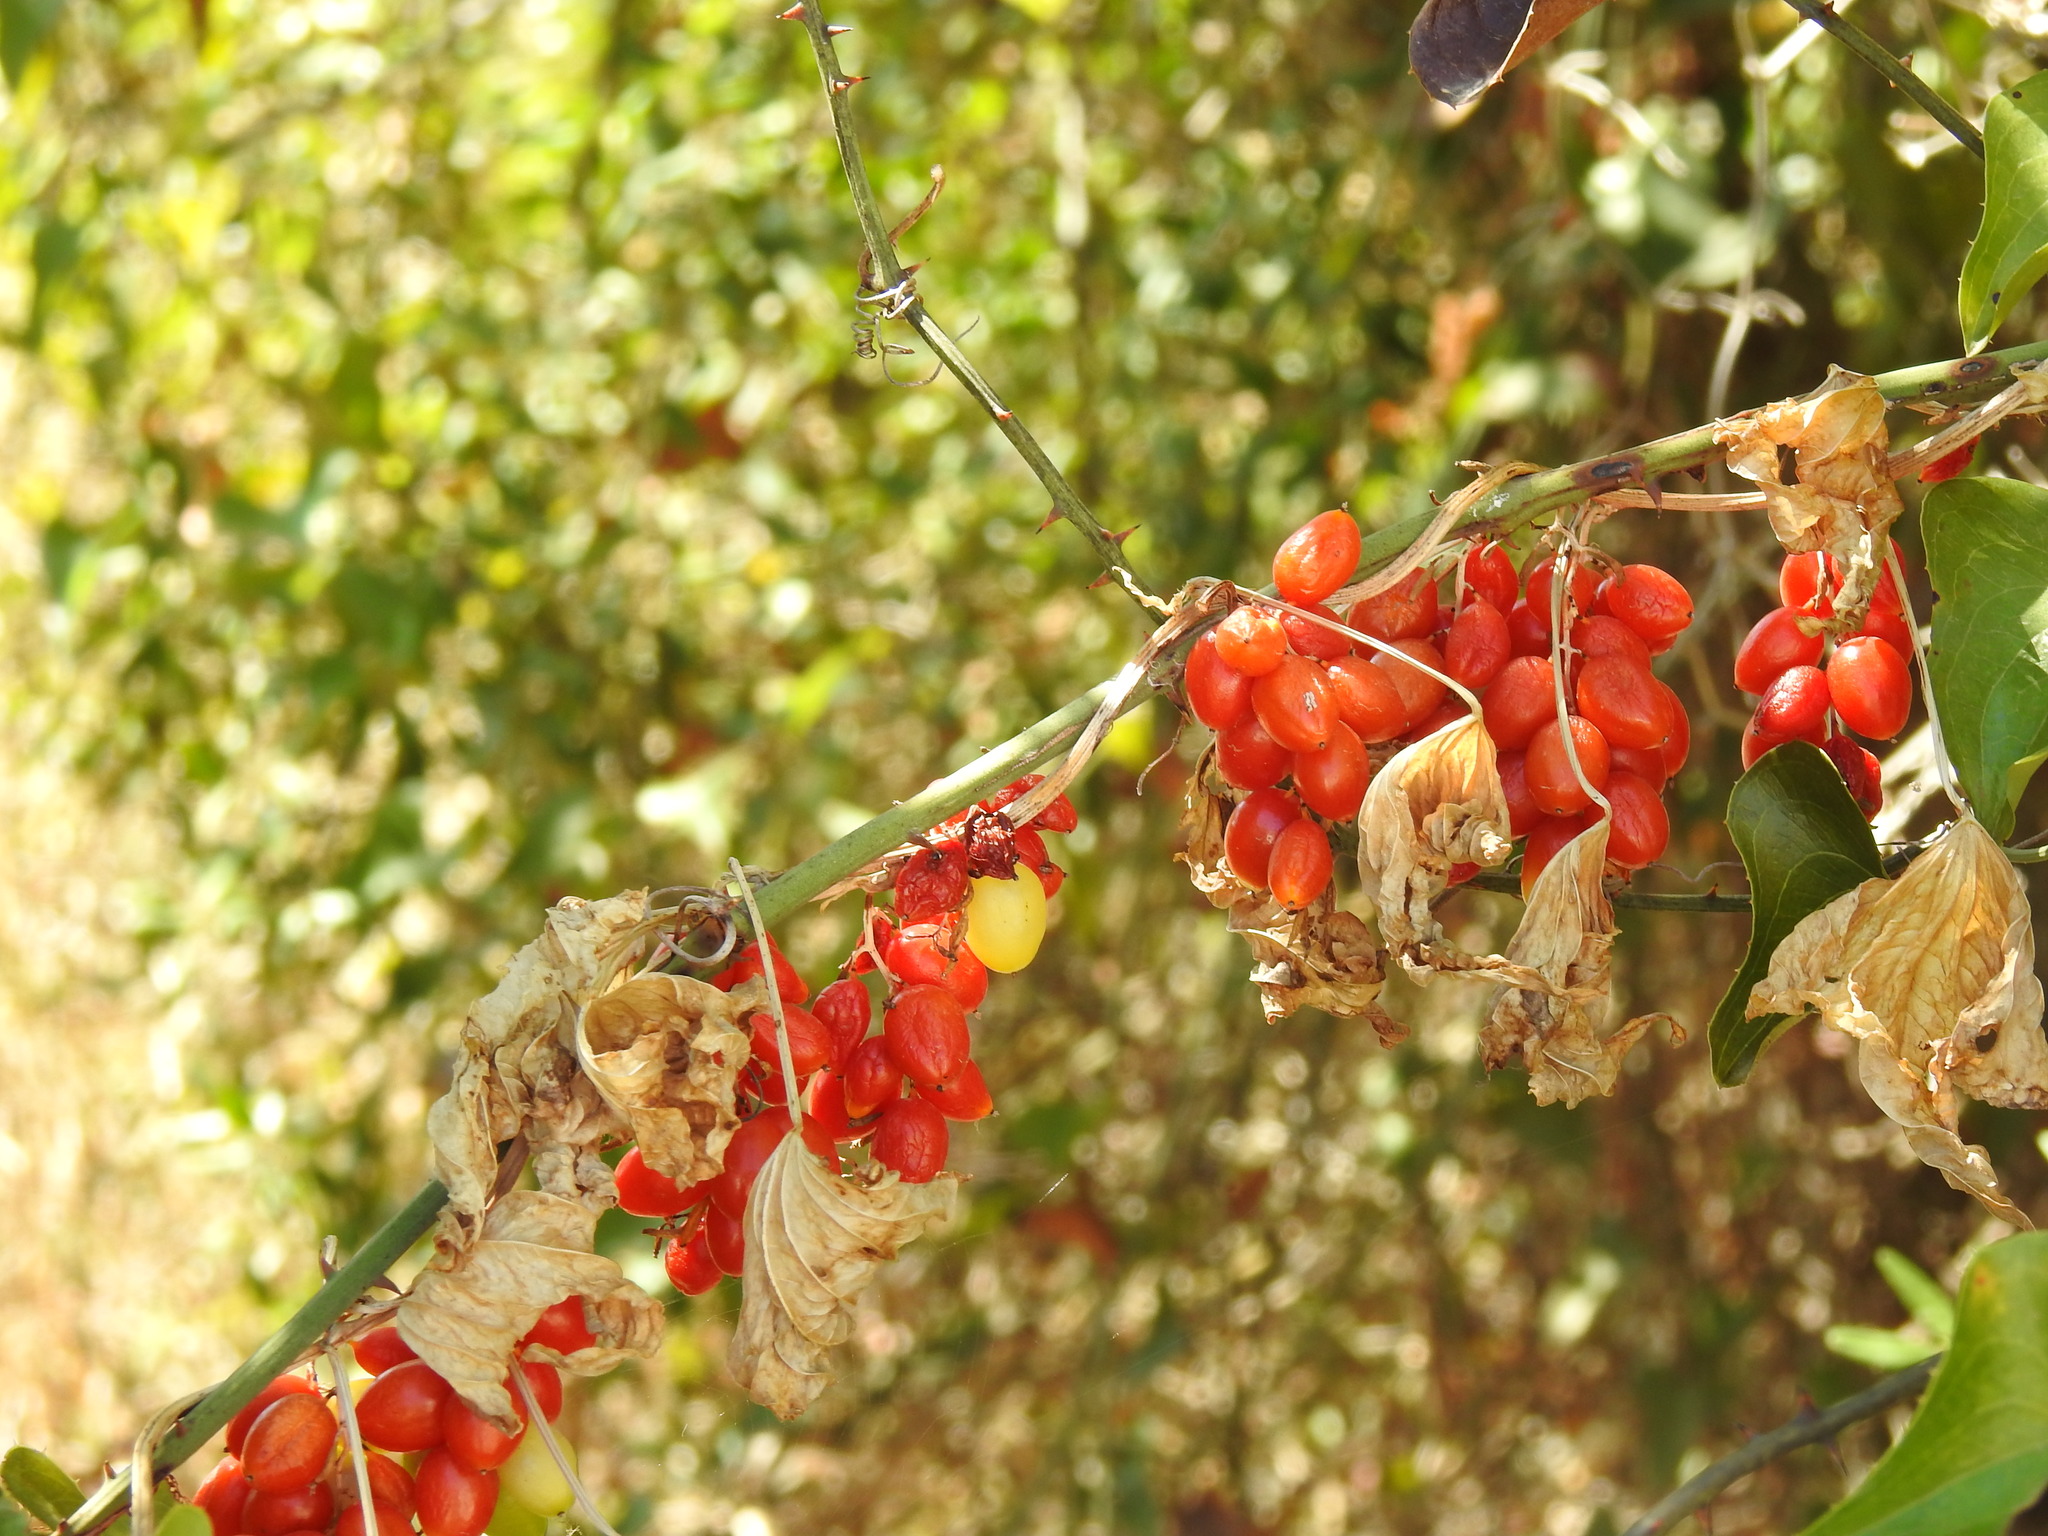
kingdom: Plantae
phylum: Tracheophyta
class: Liliopsida
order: Dioscoreales
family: Dioscoreaceae
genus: Dioscorea
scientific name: Dioscorea communis
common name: Black-bindweed
